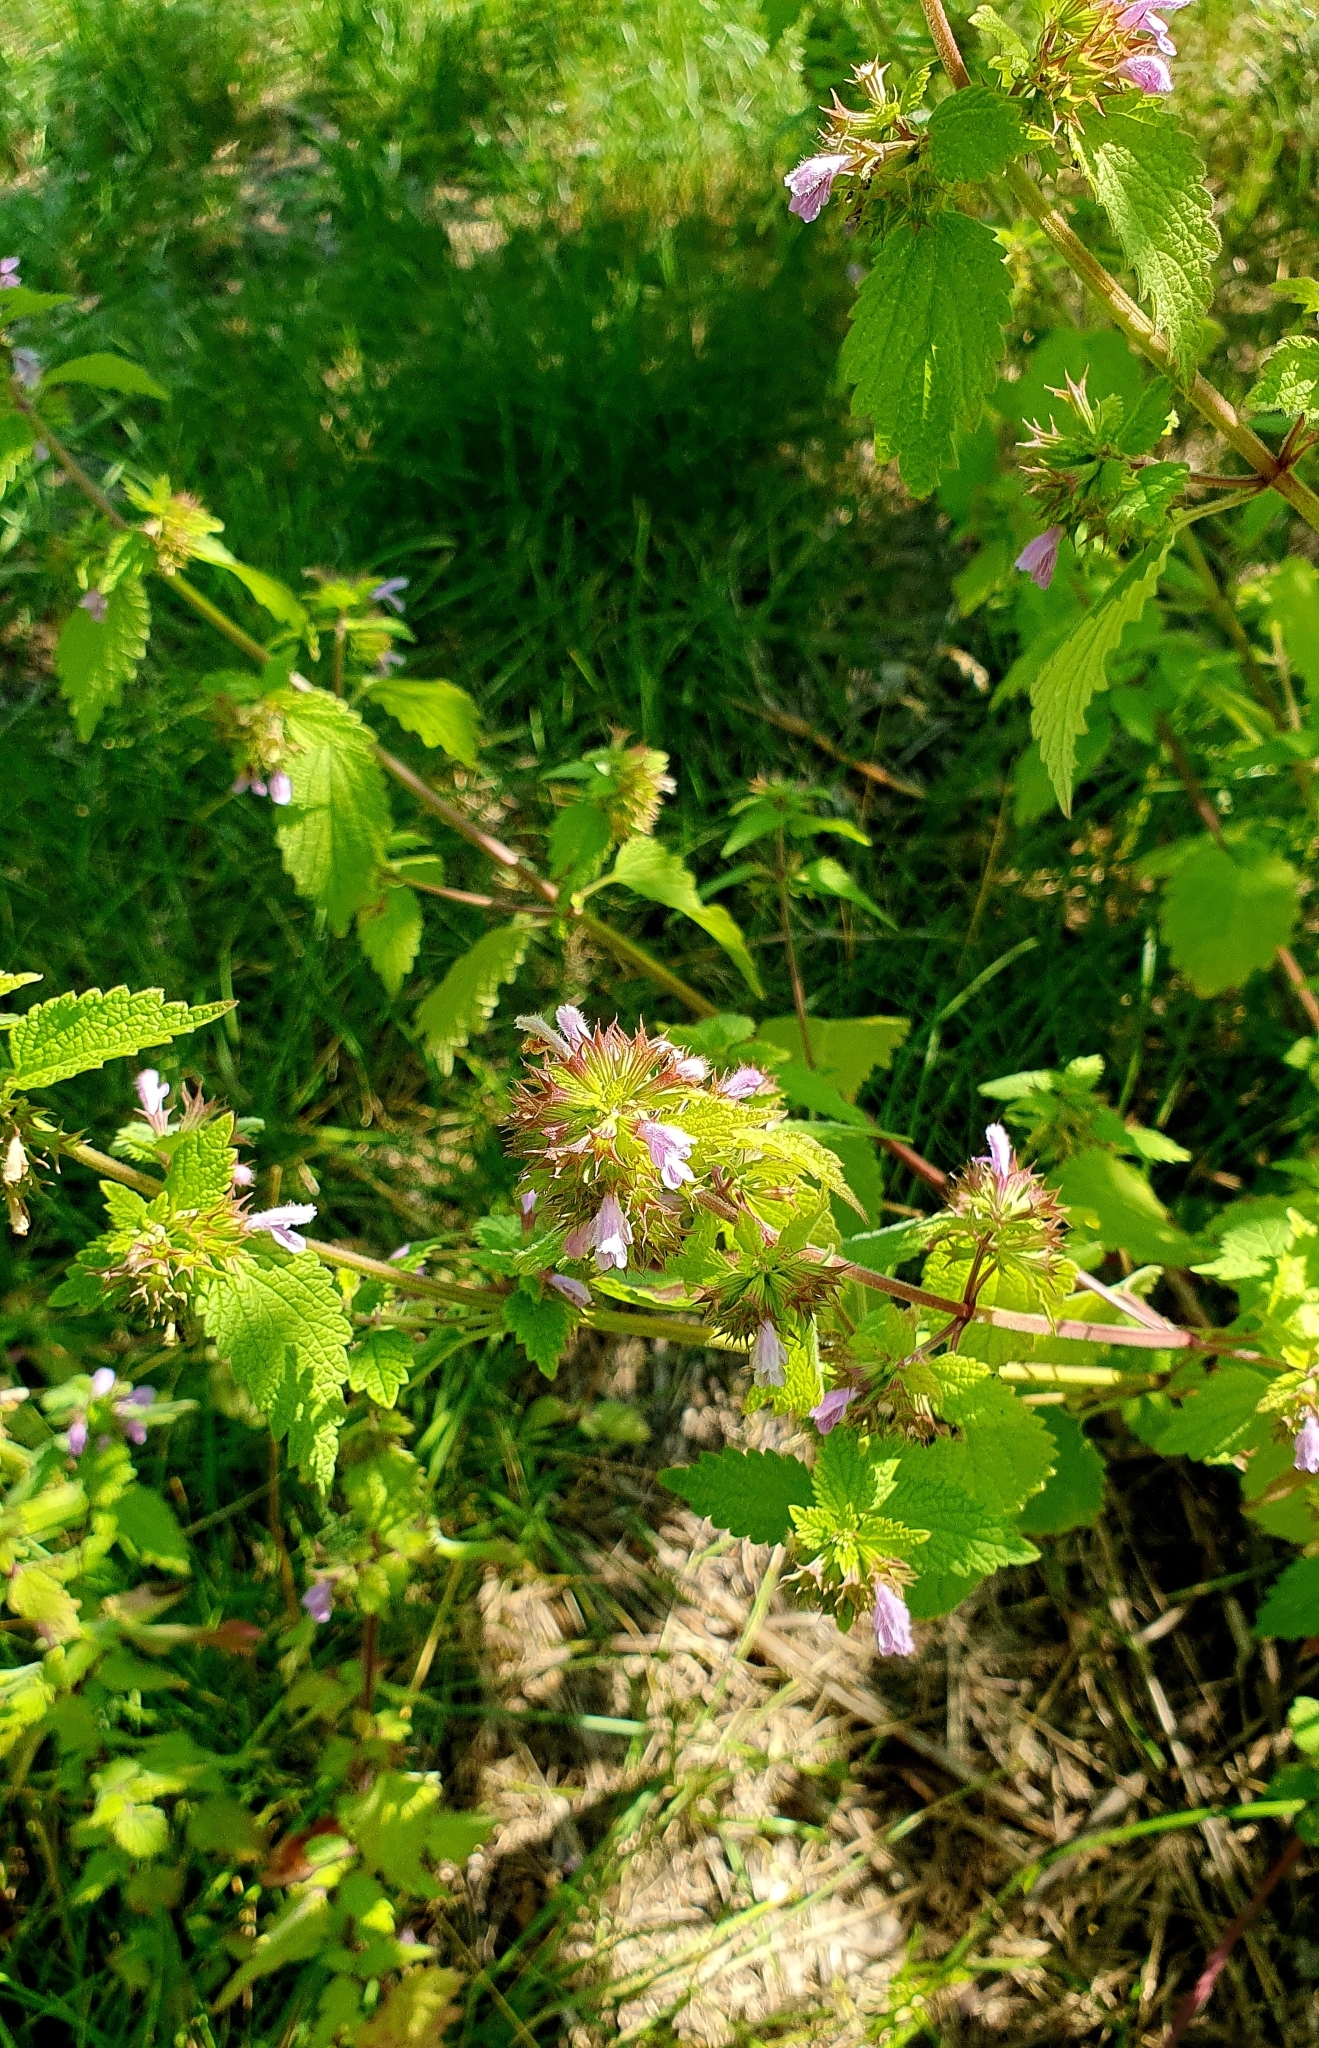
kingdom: Plantae
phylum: Tracheophyta
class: Magnoliopsida
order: Lamiales
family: Lamiaceae
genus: Ballota
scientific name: Ballota nigra
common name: Black horehound
